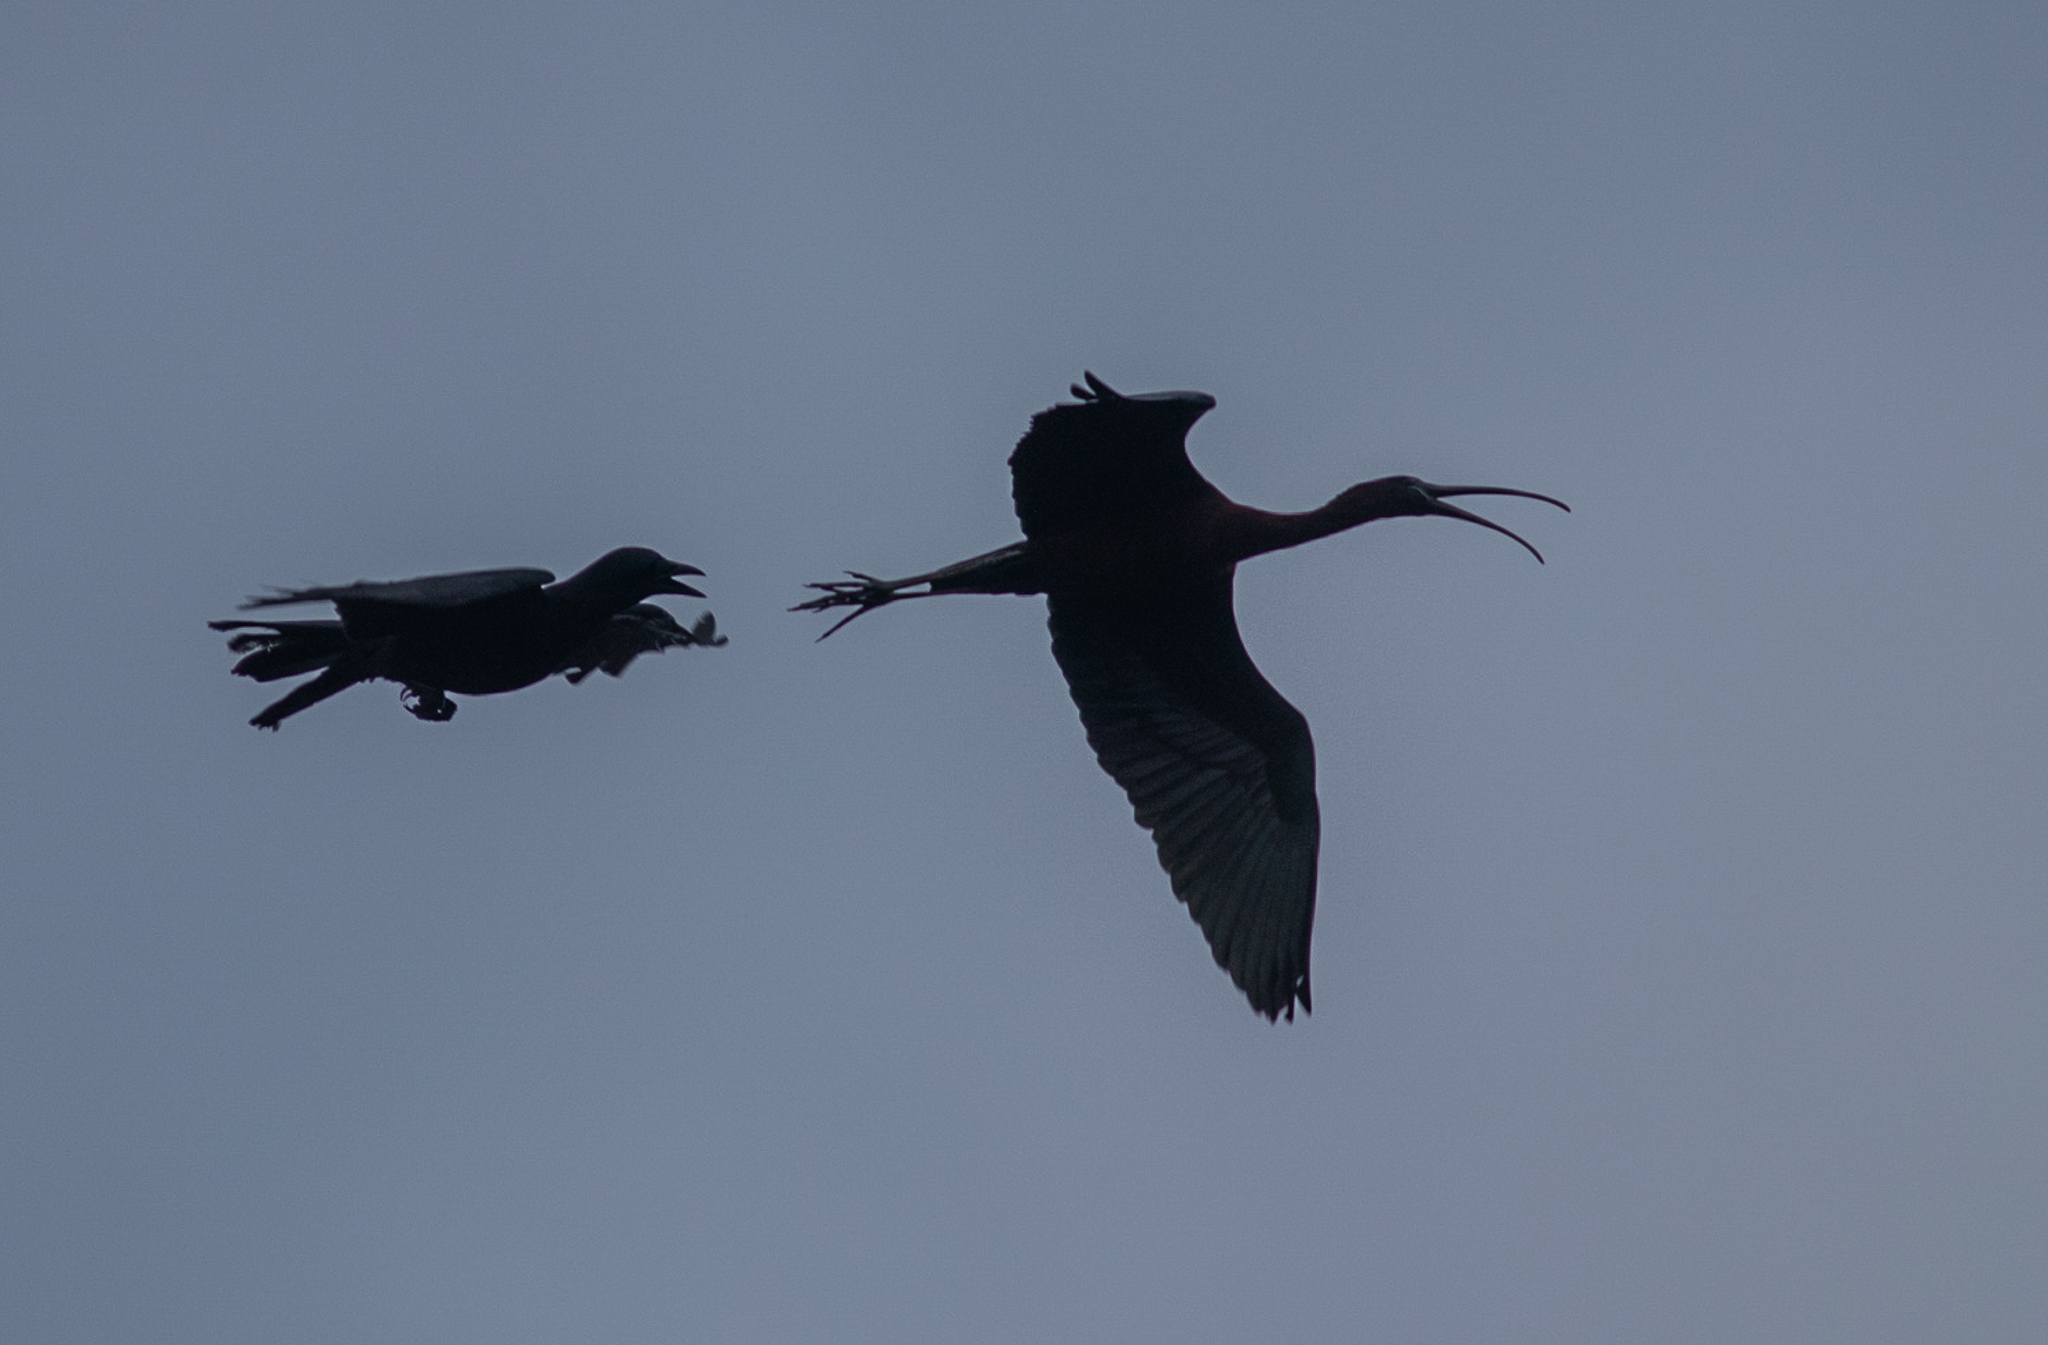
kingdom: Animalia
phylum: Chordata
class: Aves
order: Pelecaniformes
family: Threskiornithidae
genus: Plegadis
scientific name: Plegadis falcinellus
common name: Glossy ibis
